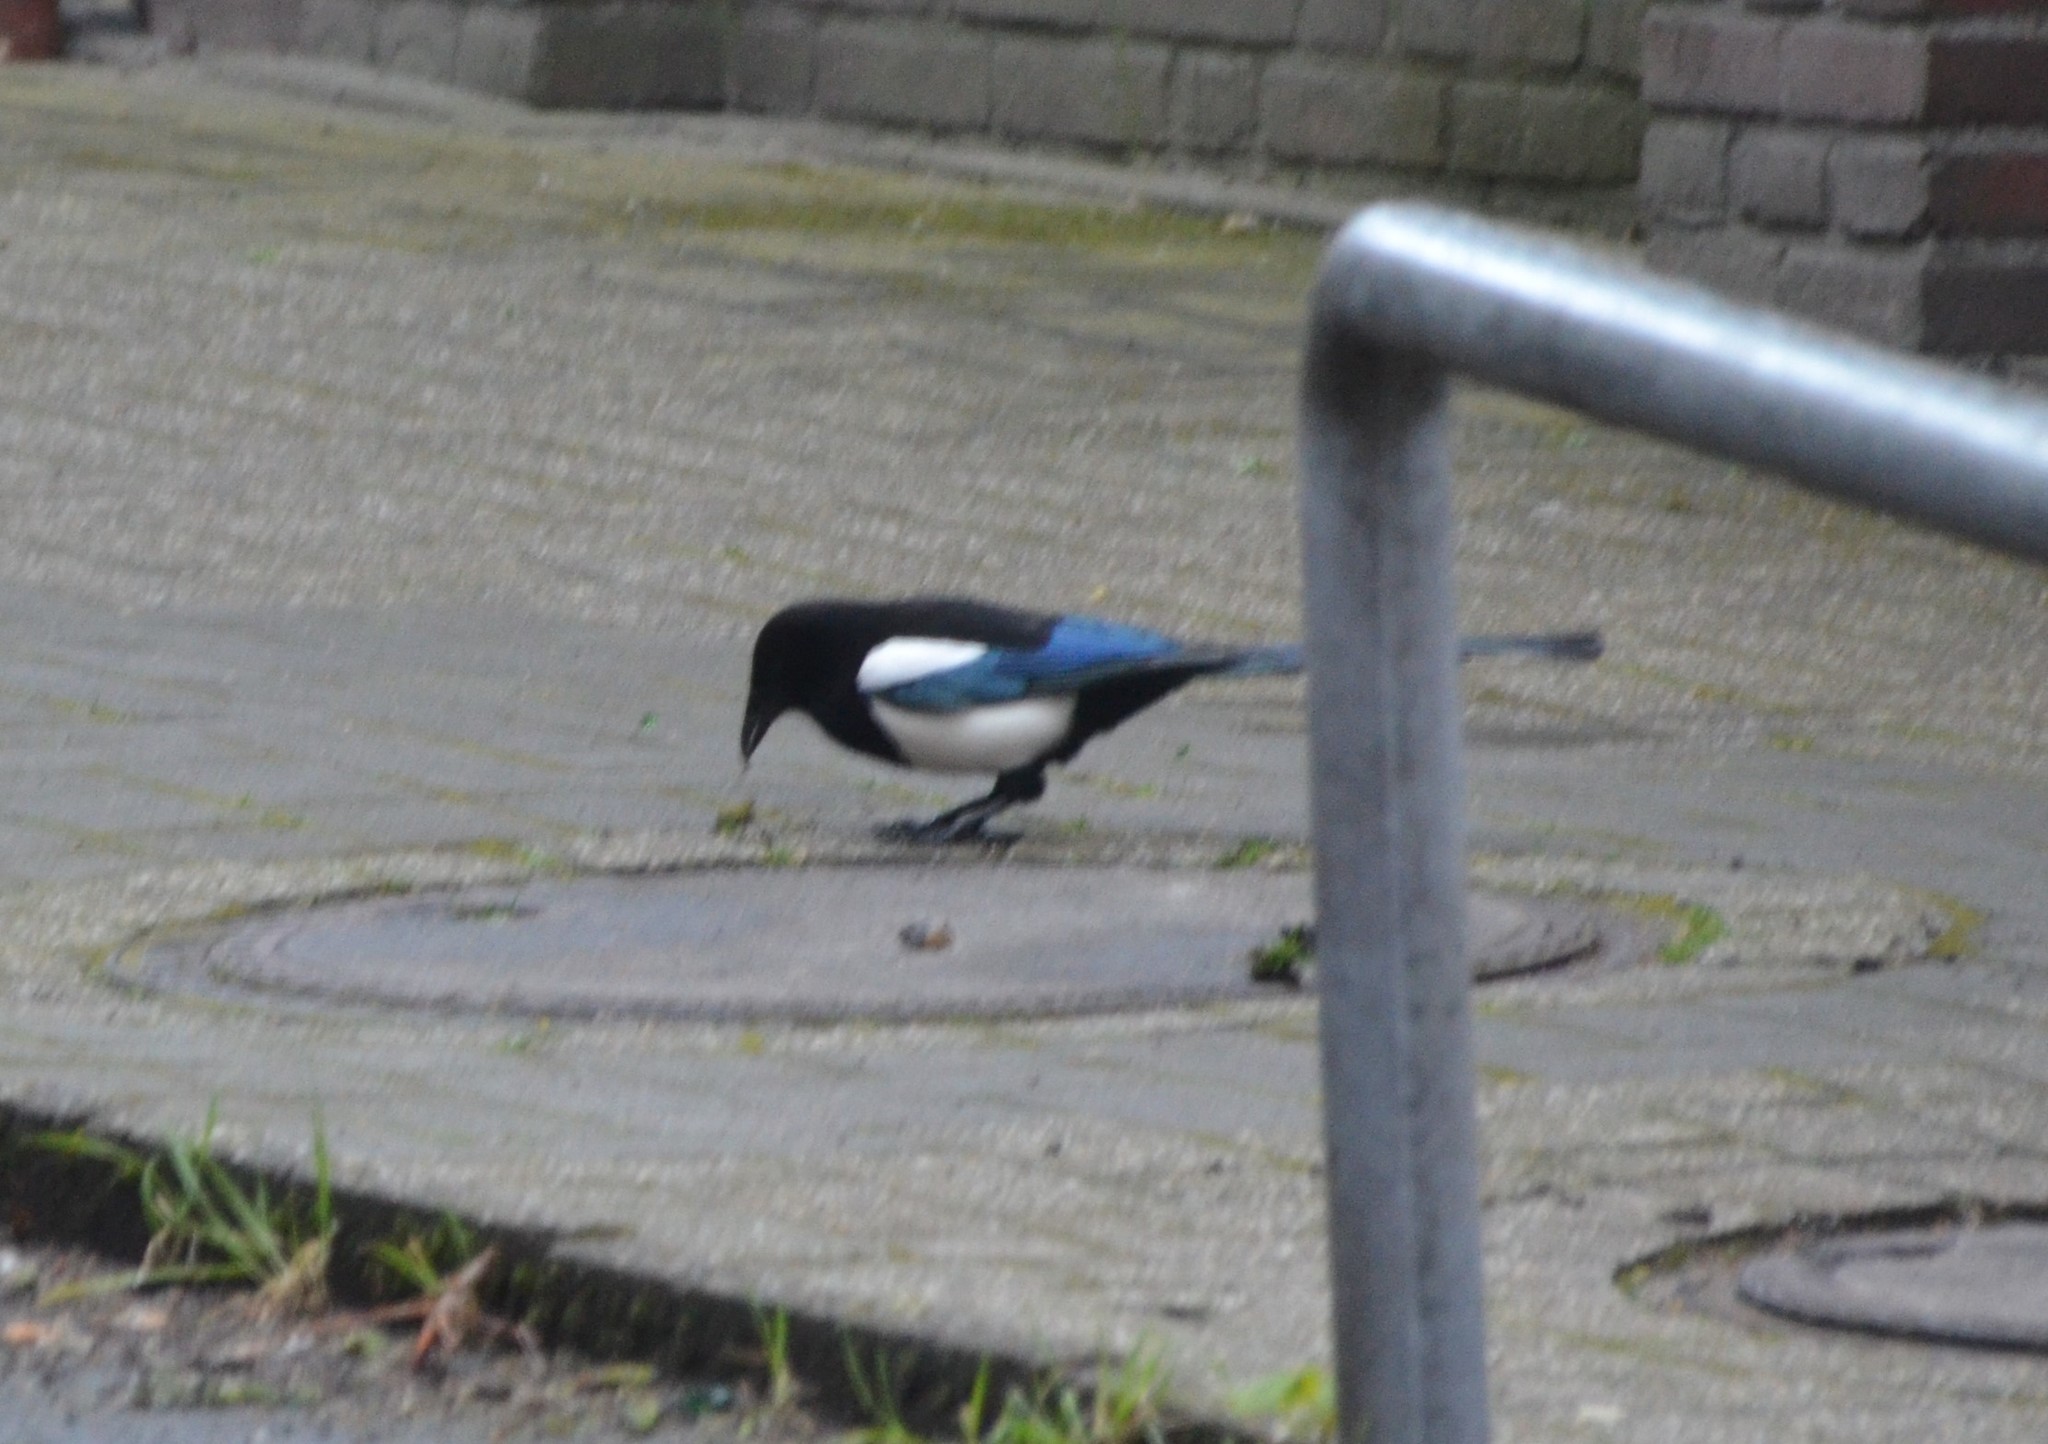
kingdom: Animalia
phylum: Chordata
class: Aves
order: Passeriformes
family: Corvidae
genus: Pica
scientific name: Pica pica
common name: Eurasian magpie
